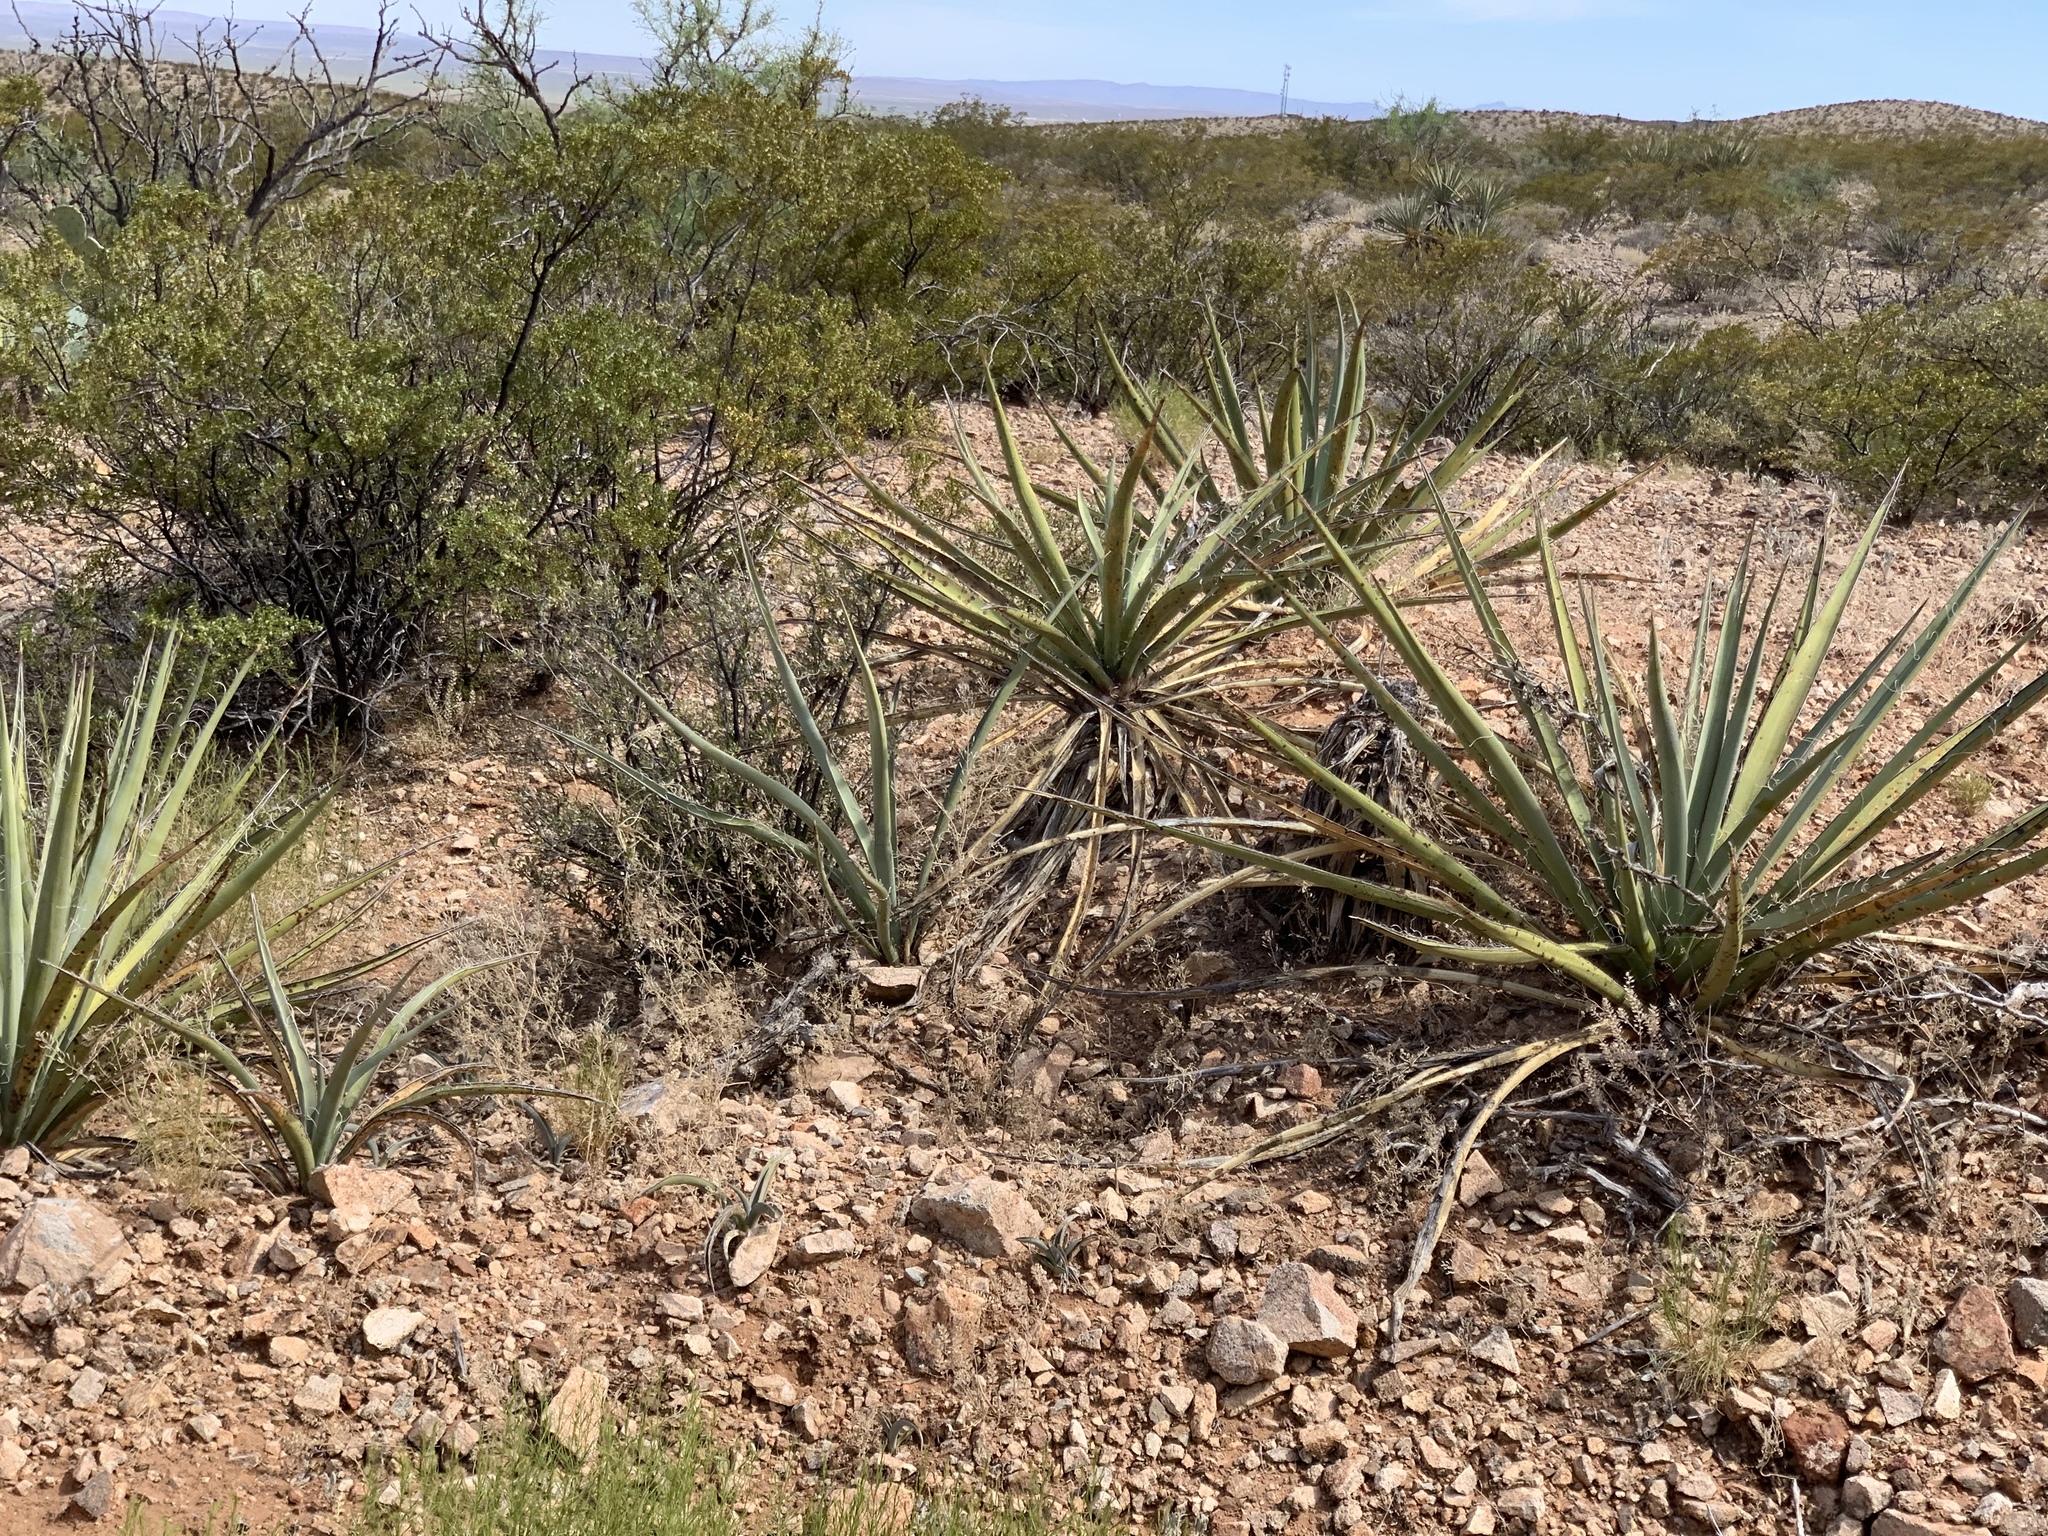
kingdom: Plantae
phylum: Tracheophyta
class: Liliopsida
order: Asparagales
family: Asparagaceae
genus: Yucca
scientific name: Yucca baccata
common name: Banana yucca
